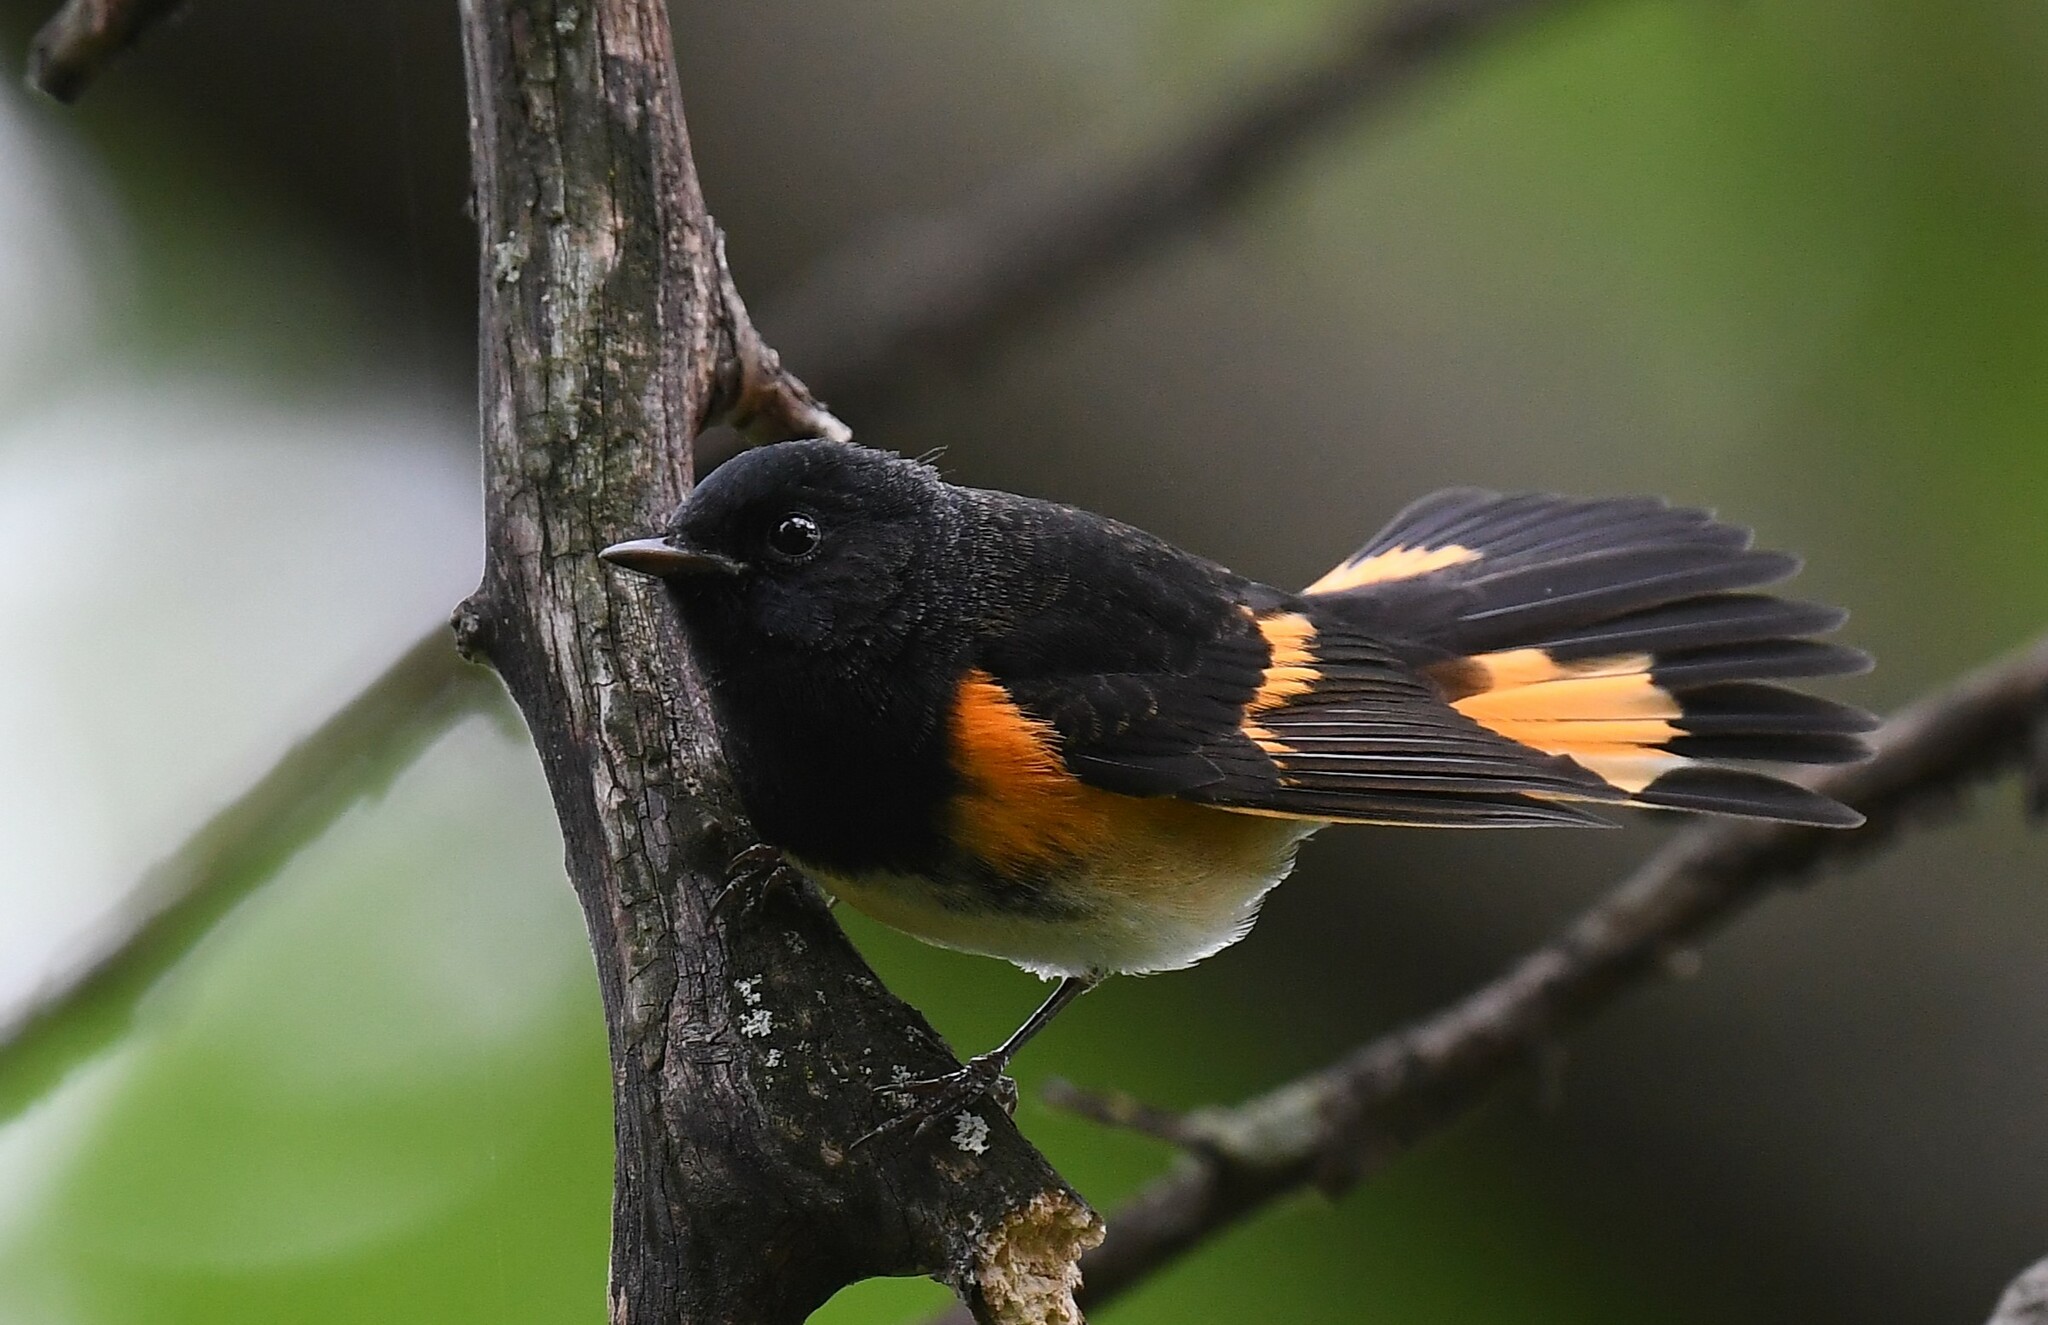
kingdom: Animalia
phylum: Chordata
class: Aves
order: Passeriformes
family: Parulidae
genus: Setophaga
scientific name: Setophaga ruticilla
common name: American redstart
